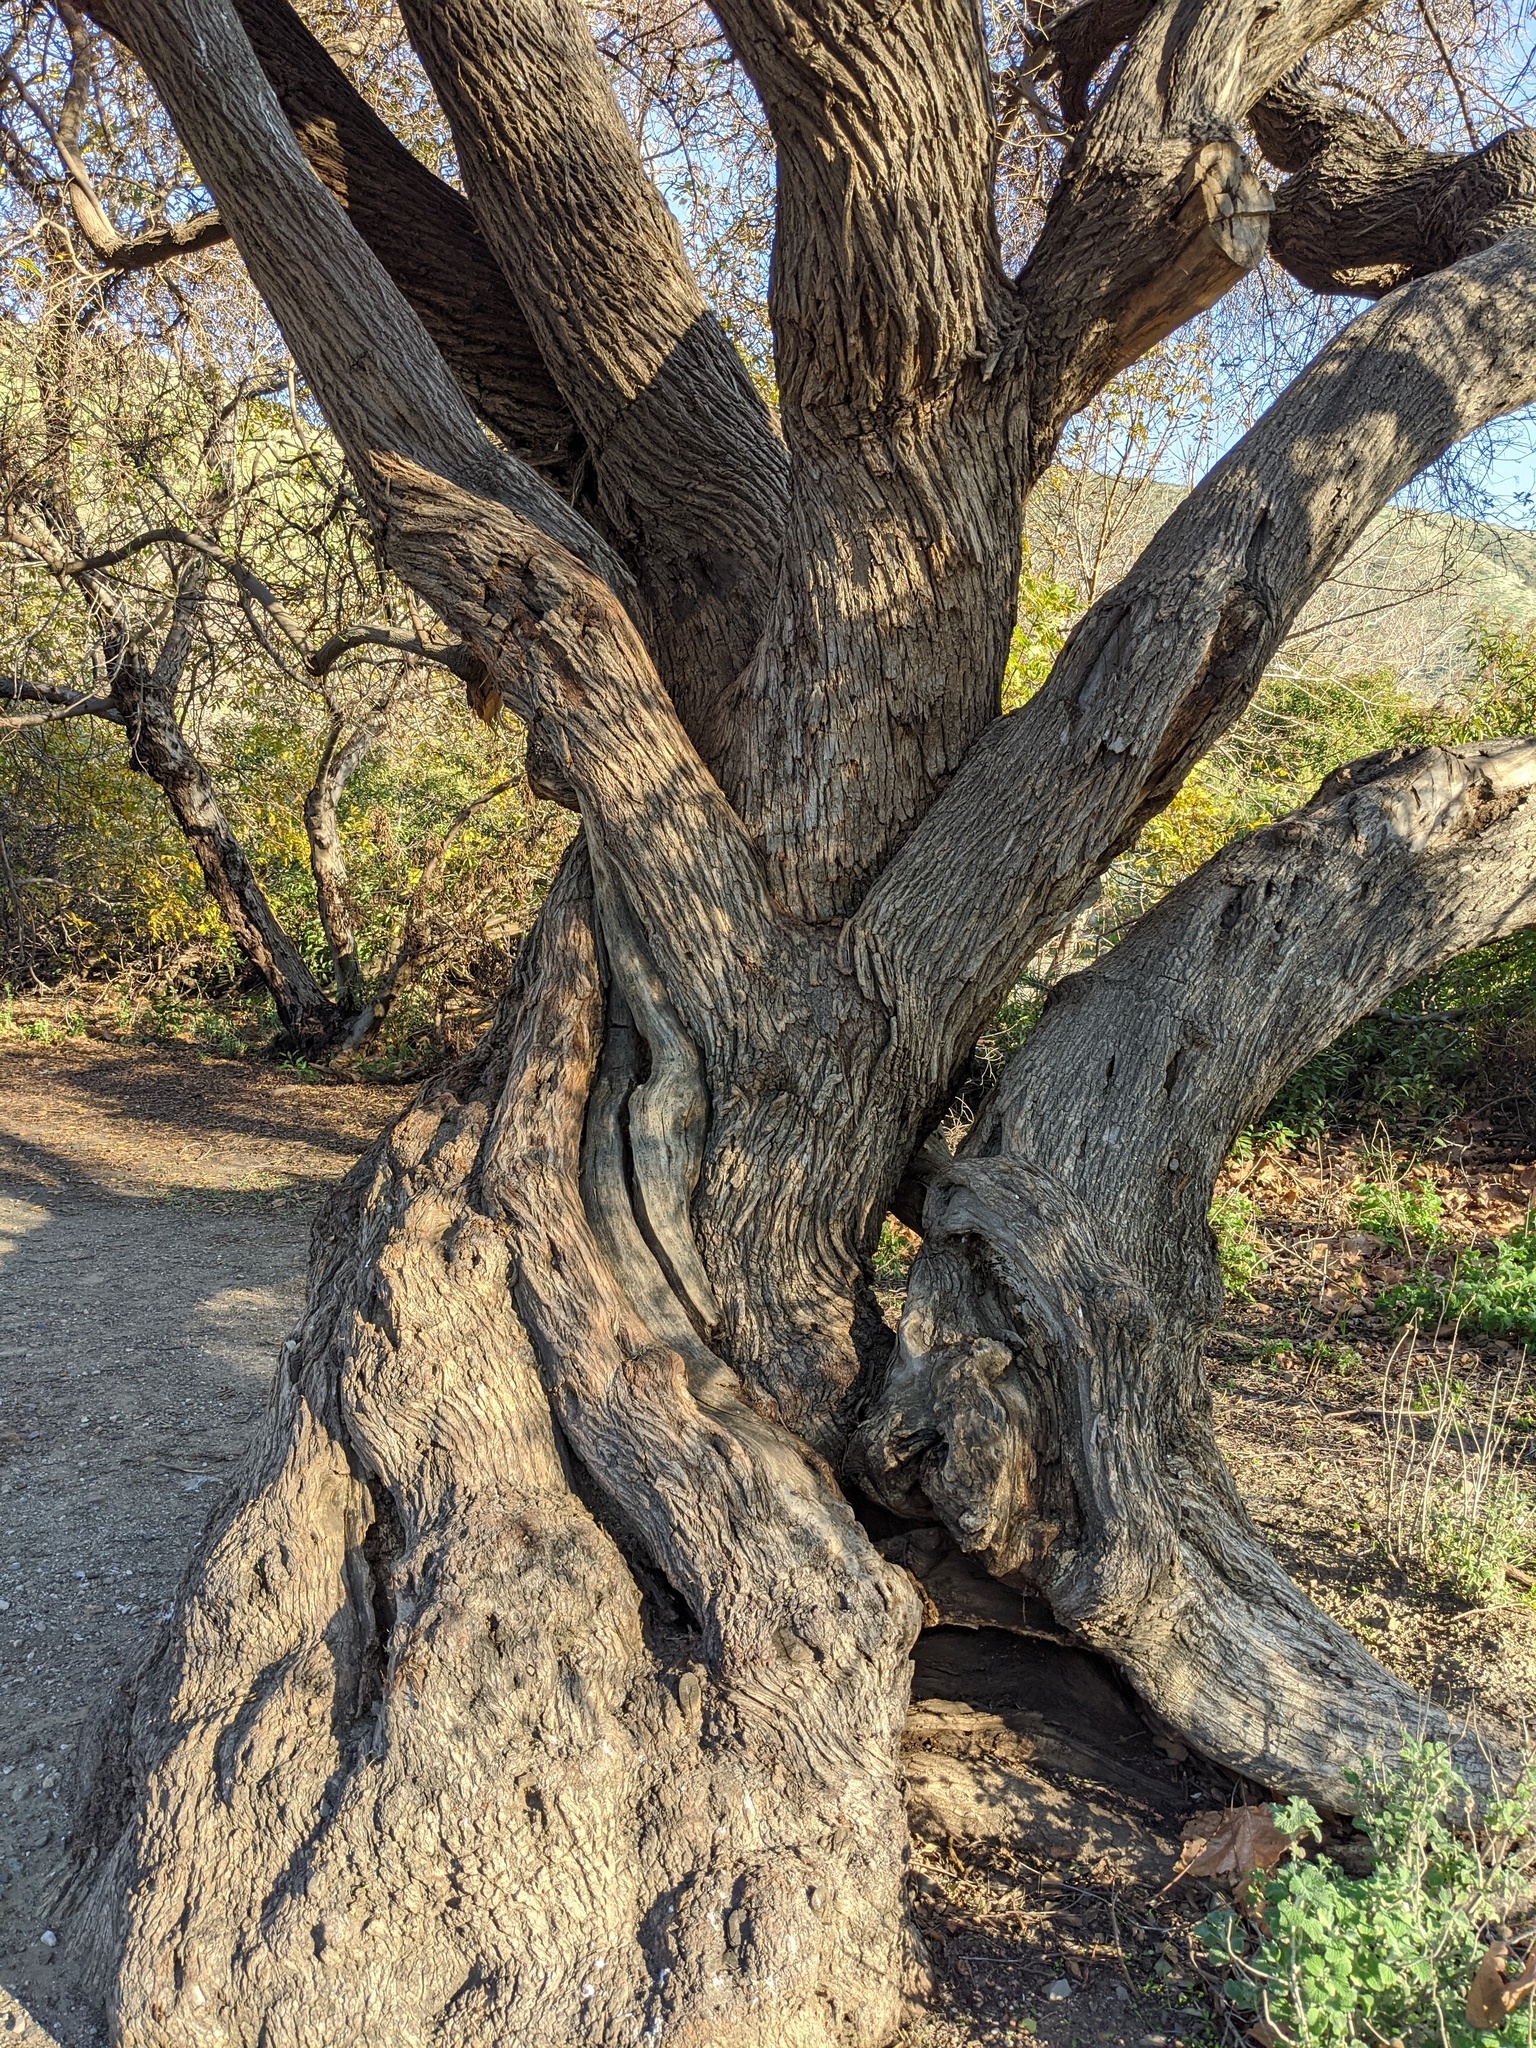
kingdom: Plantae
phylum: Tracheophyta
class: Magnoliopsida
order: Dipsacales
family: Viburnaceae
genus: Sambucus
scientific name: Sambucus cerulea
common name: Blue elder
